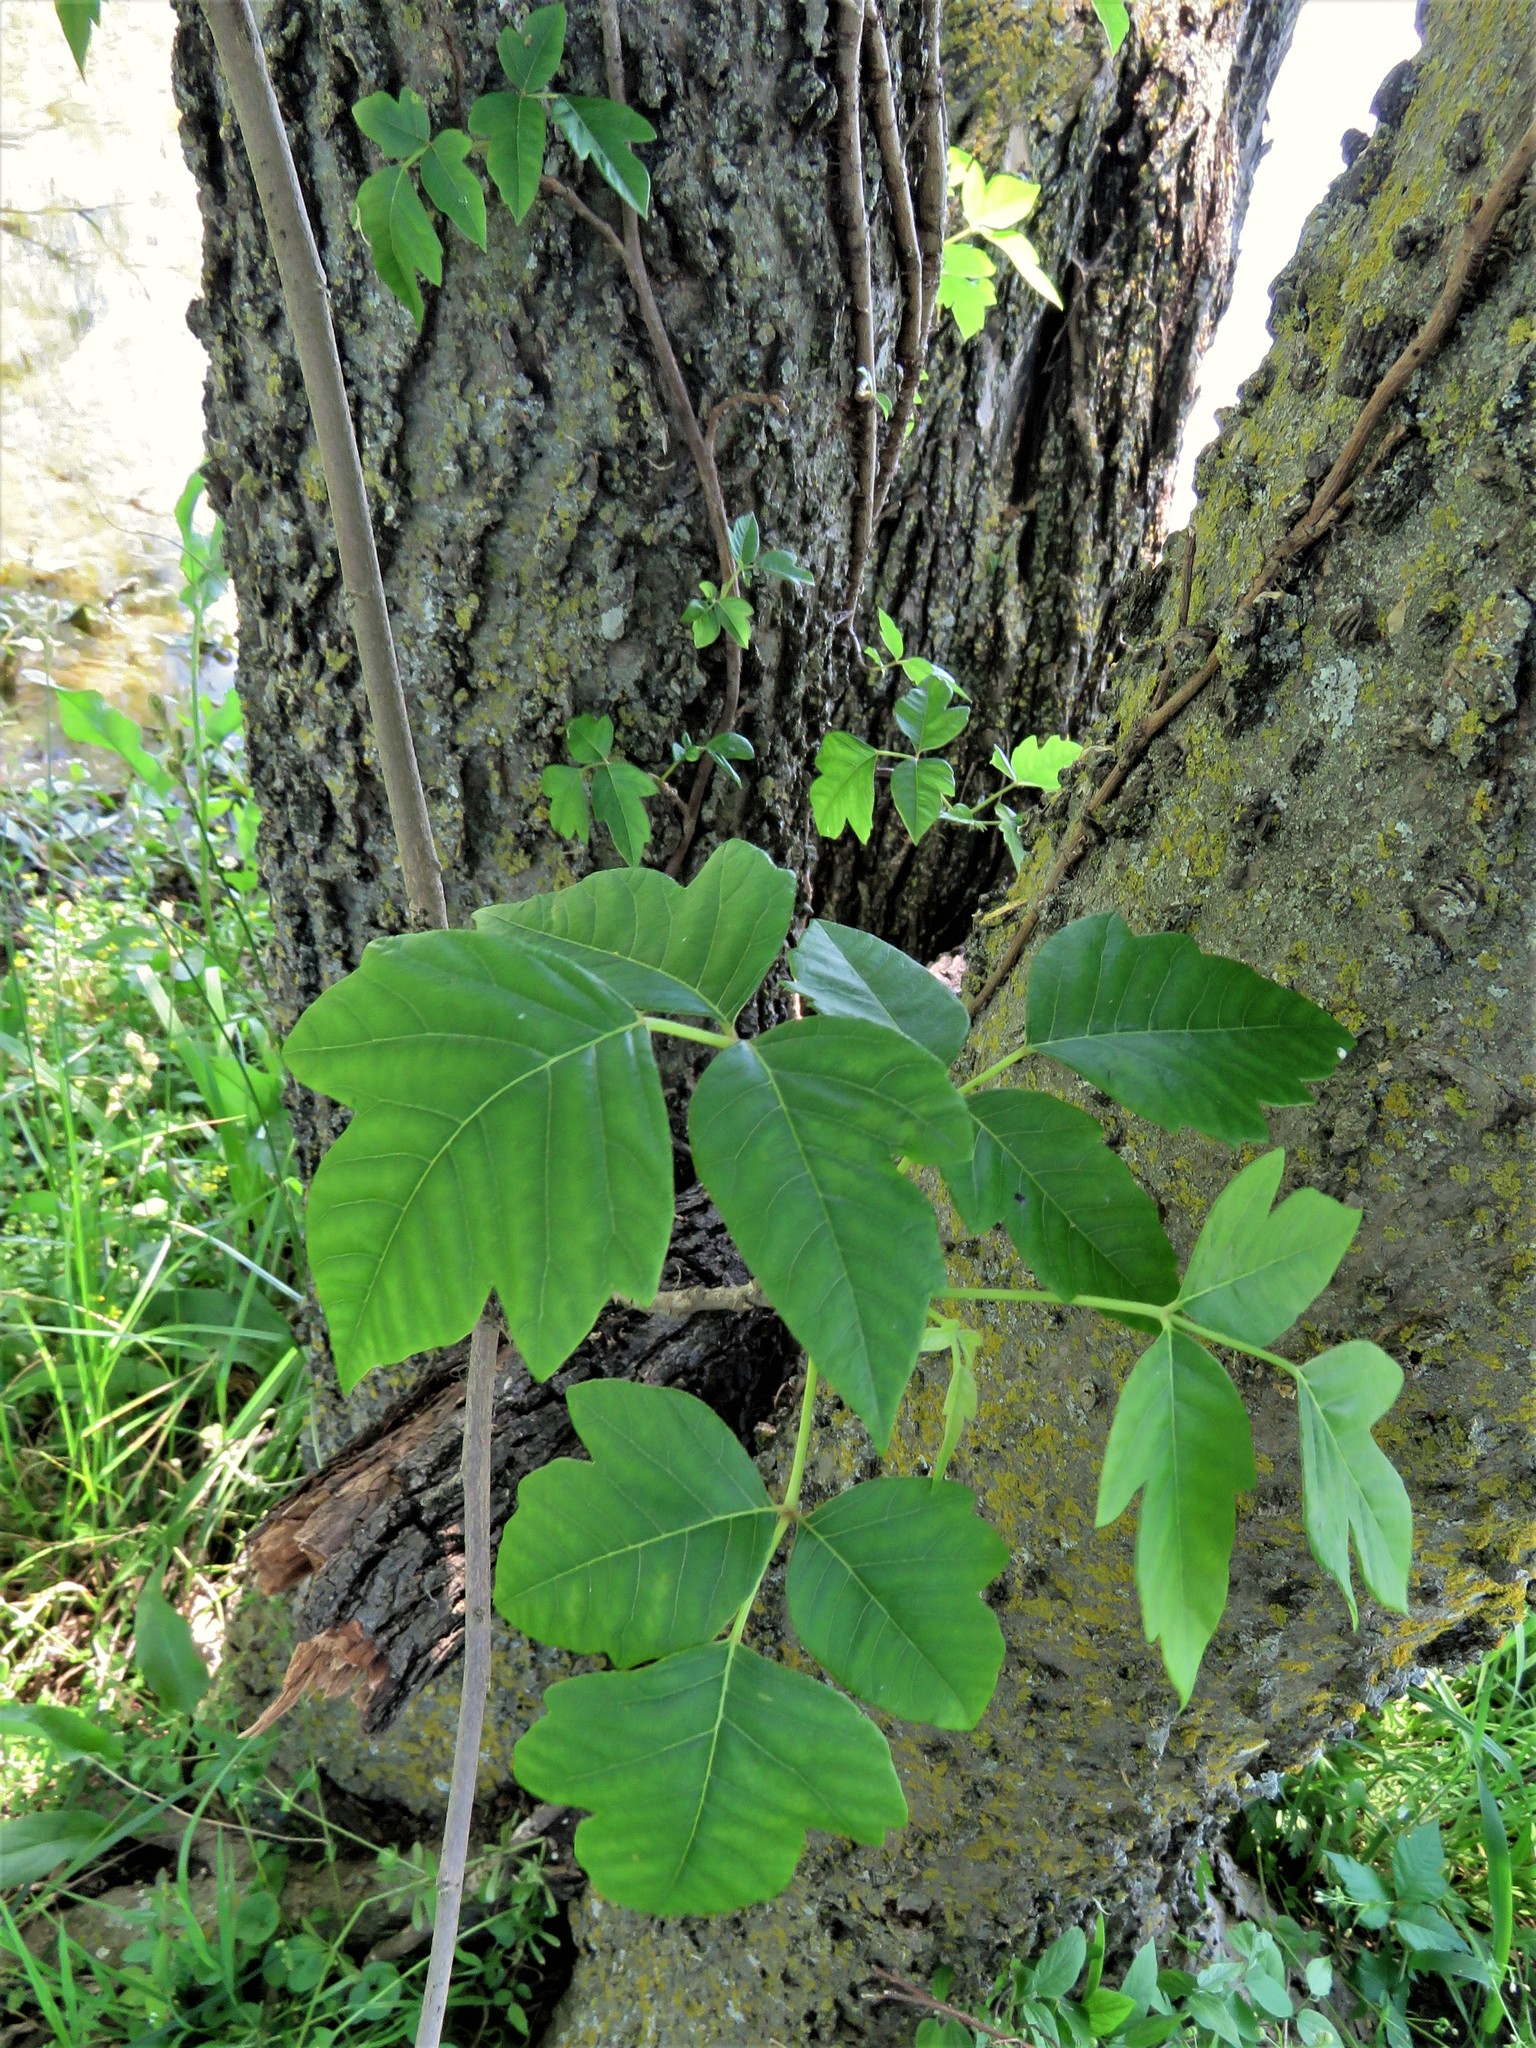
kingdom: Plantae
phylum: Tracheophyta
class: Magnoliopsida
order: Sapindales
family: Anacardiaceae
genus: Toxicodendron
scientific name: Toxicodendron radicans
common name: Poison ivy
